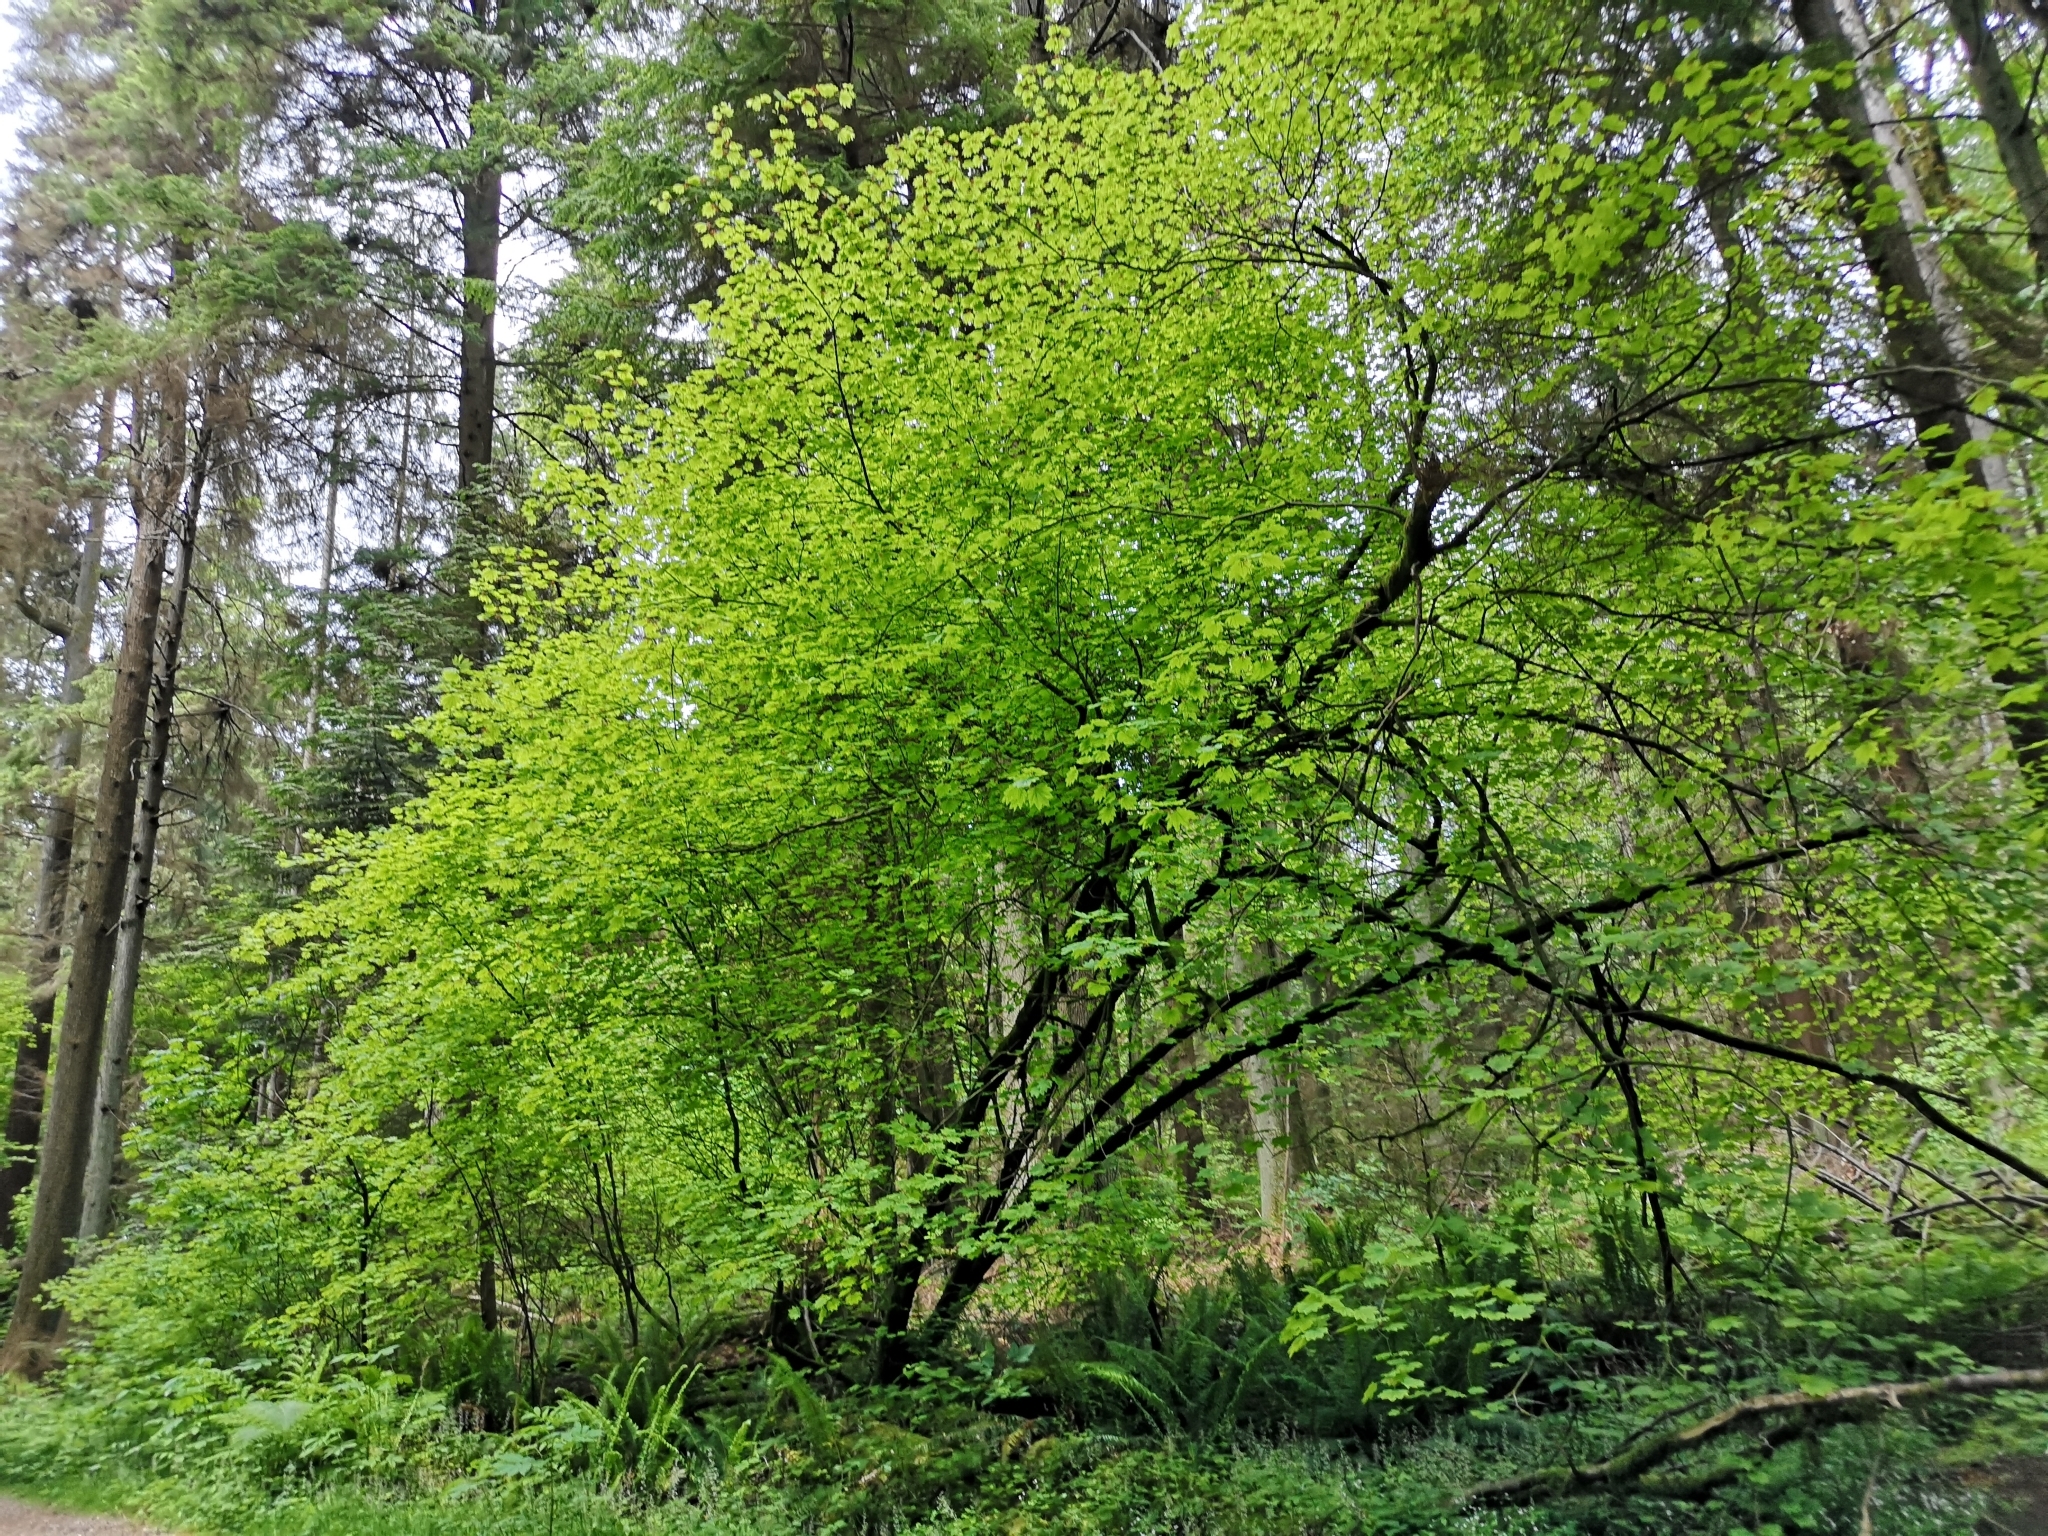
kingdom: Plantae
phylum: Tracheophyta
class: Magnoliopsida
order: Sapindales
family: Sapindaceae
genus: Acer
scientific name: Acer circinatum
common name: Vine maple
